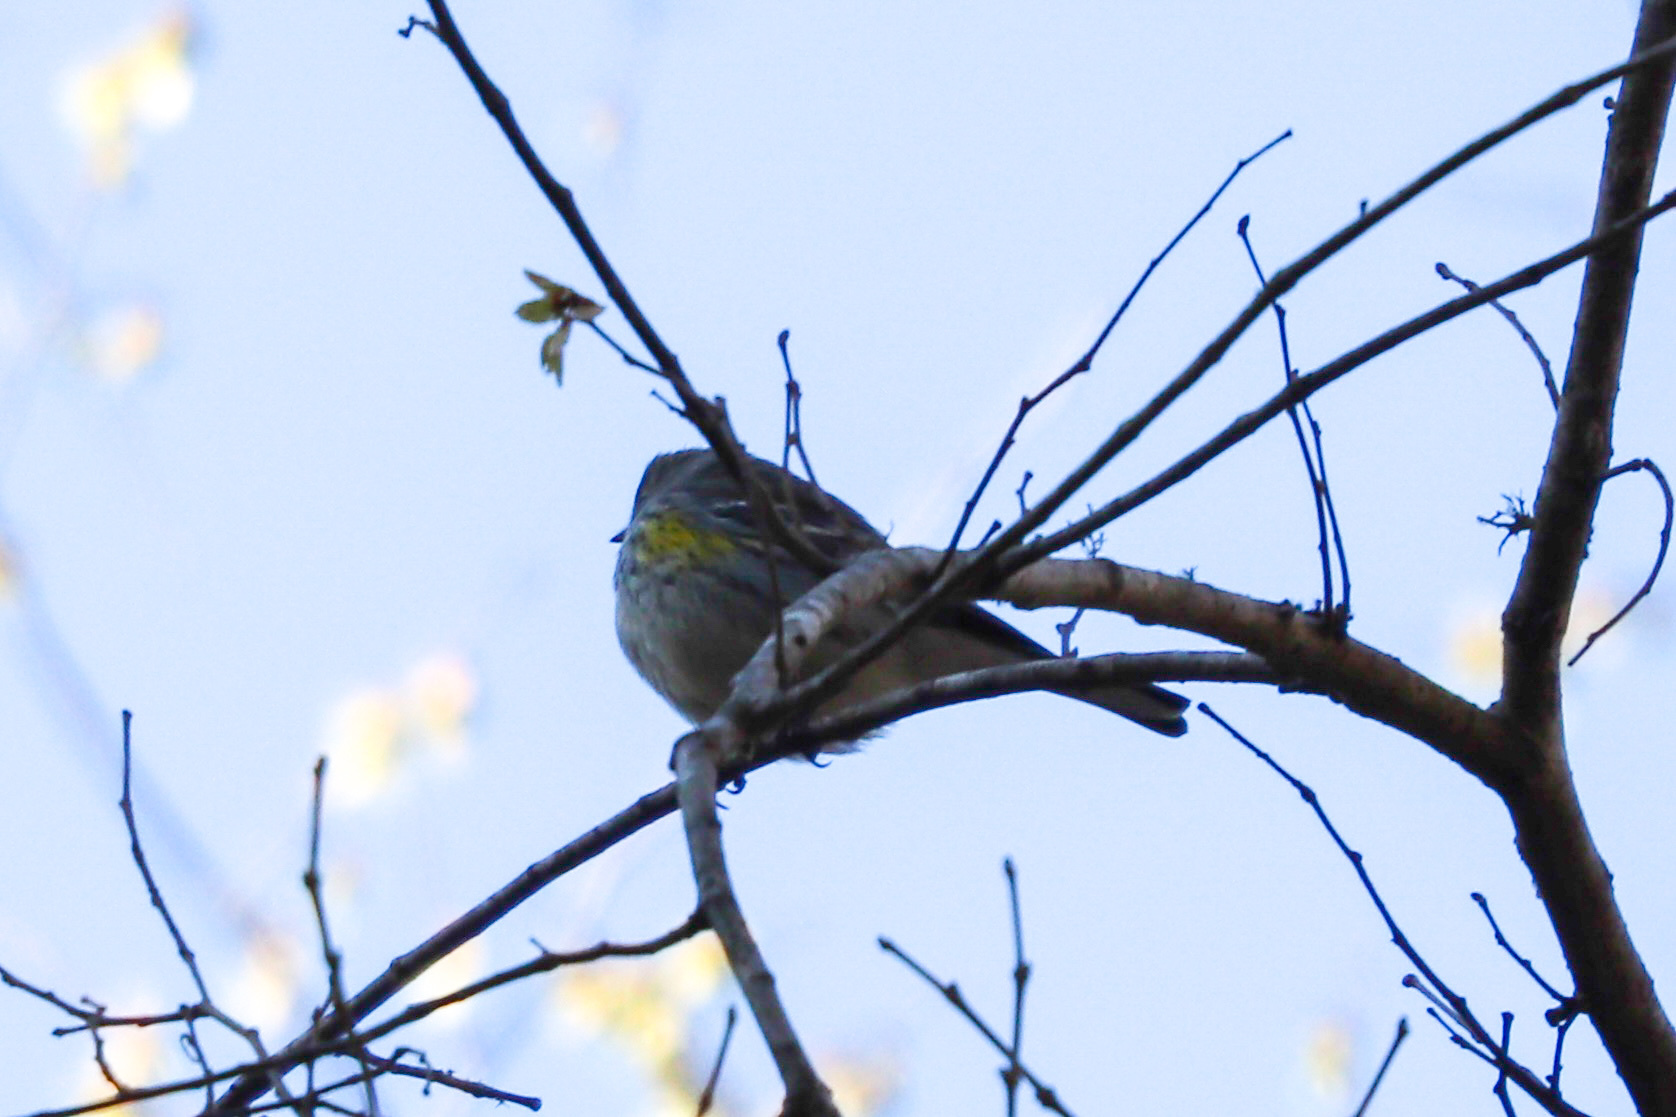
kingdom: Animalia
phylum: Chordata
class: Aves
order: Passeriformes
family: Parulidae
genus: Setophaga
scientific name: Setophaga coronata
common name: Myrtle warbler
